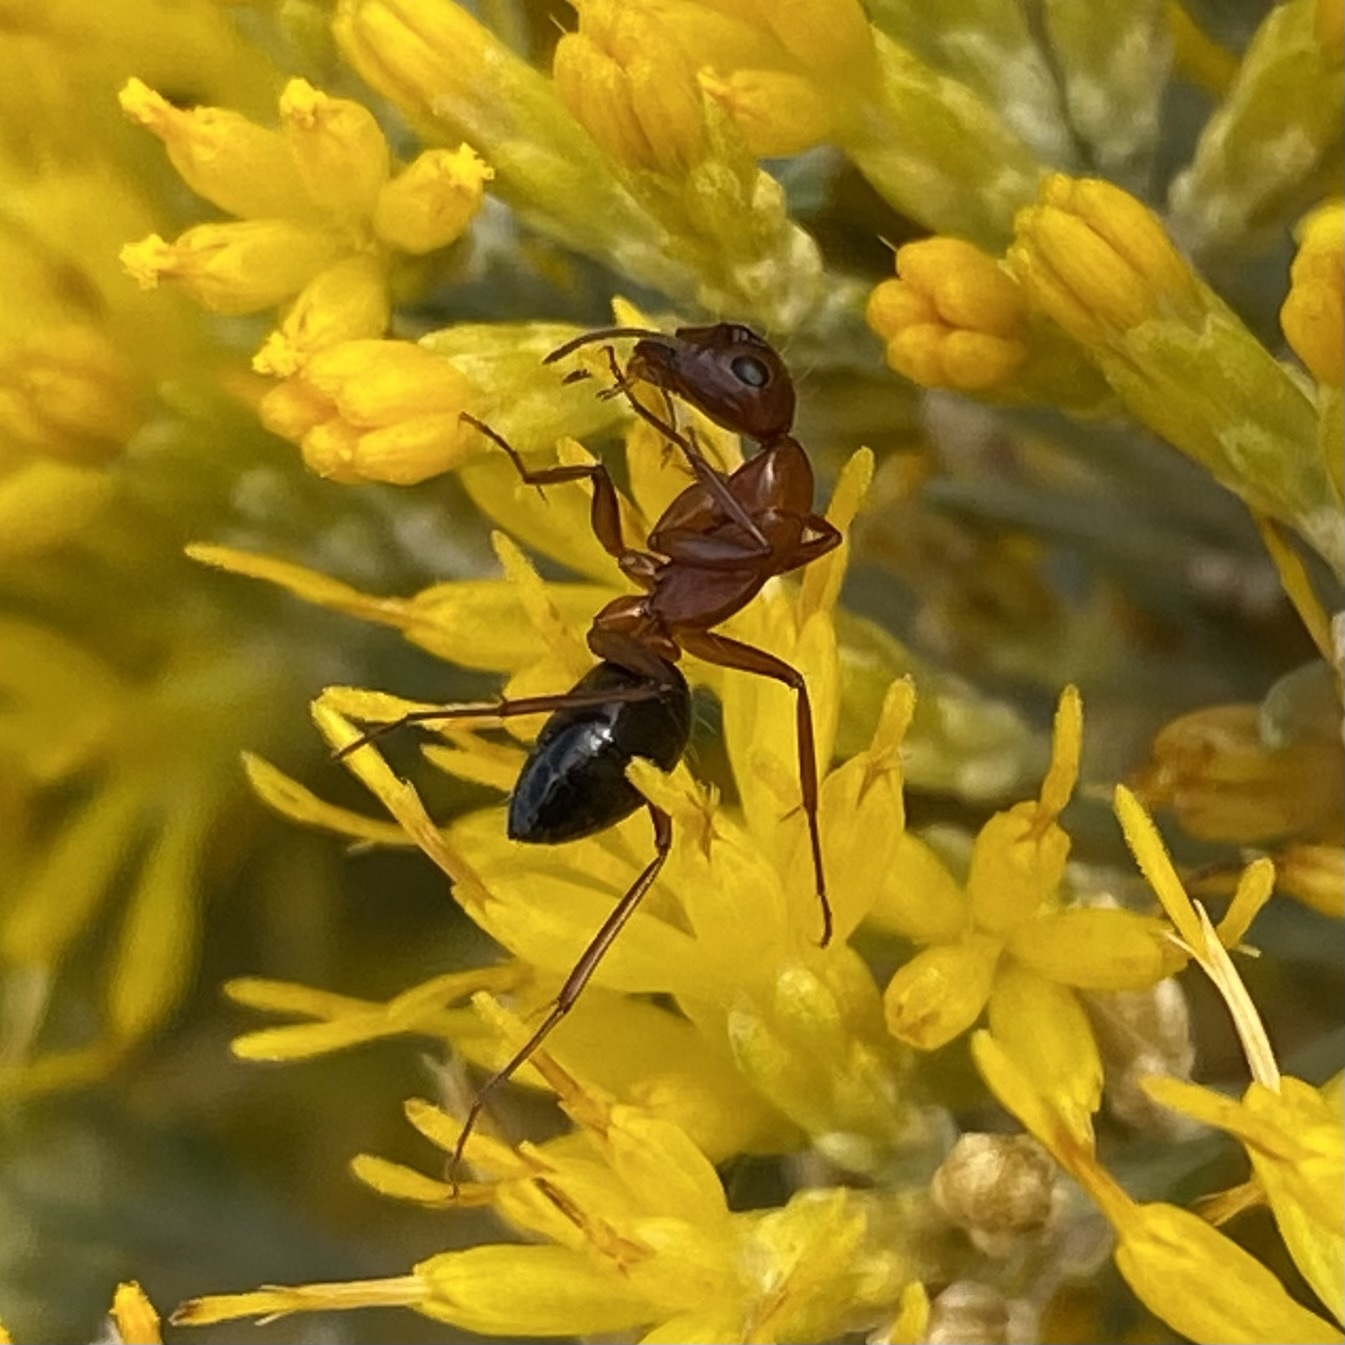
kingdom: Animalia
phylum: Arthropoda
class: Insecta
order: Hymenoptera
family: Formicidae
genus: Camponotus
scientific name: Camponotus
